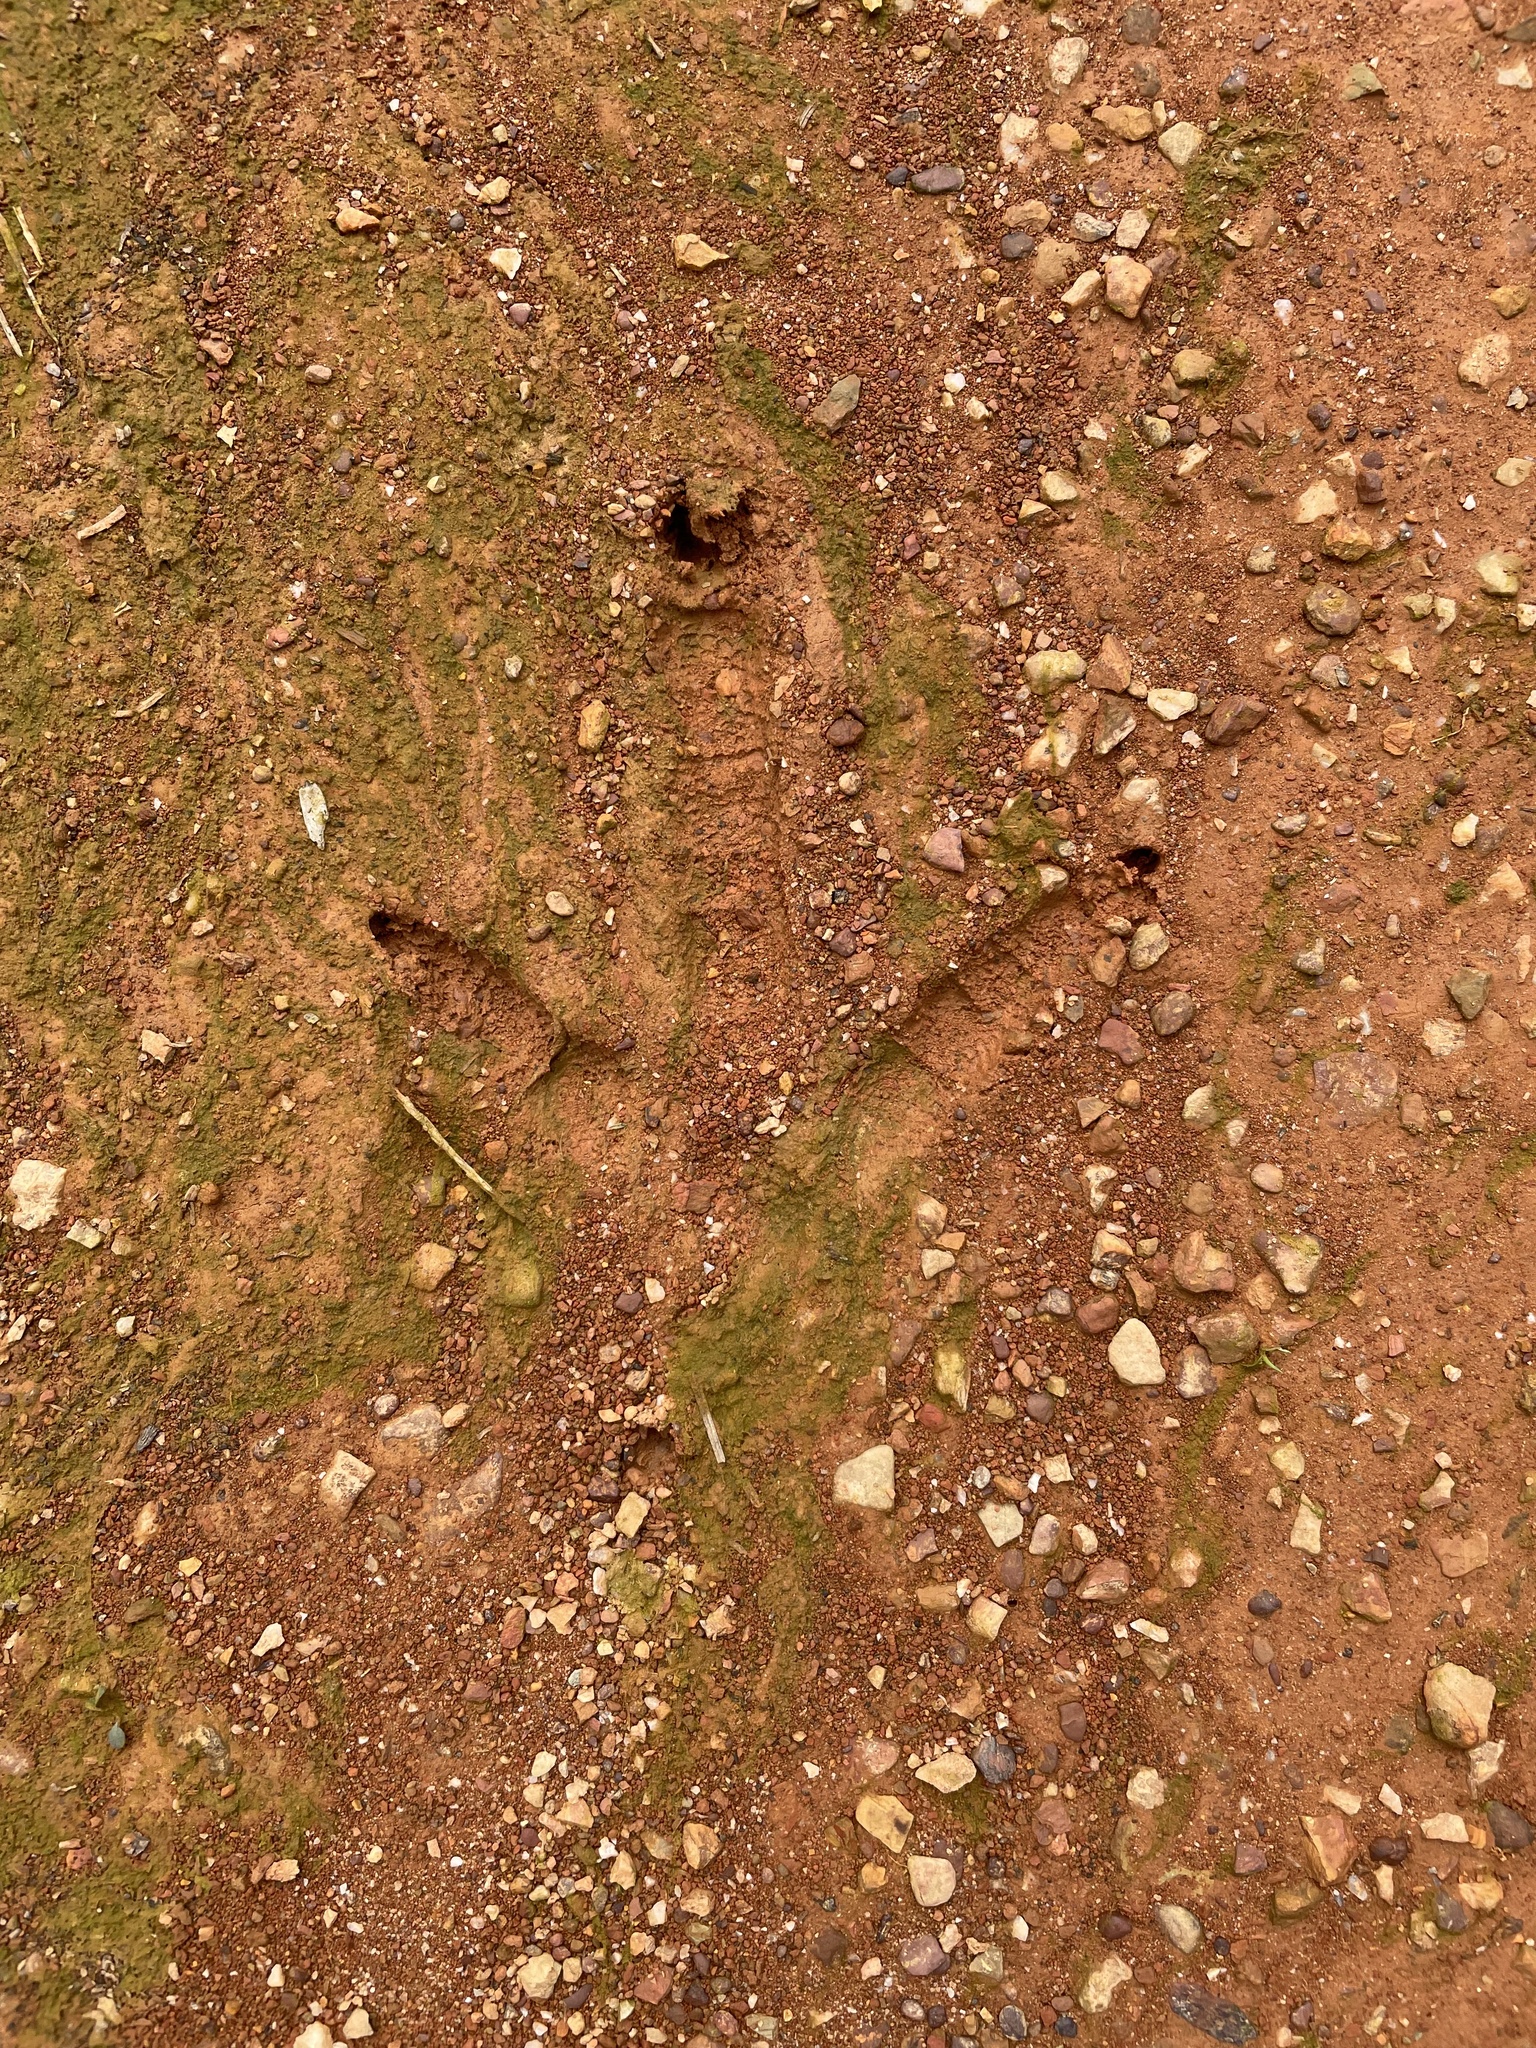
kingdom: Animalia
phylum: Chordata
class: Aves
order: Galliformes
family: Phasianidae
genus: Meleagris
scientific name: Meleagris gallopavo
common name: Wild turkey
